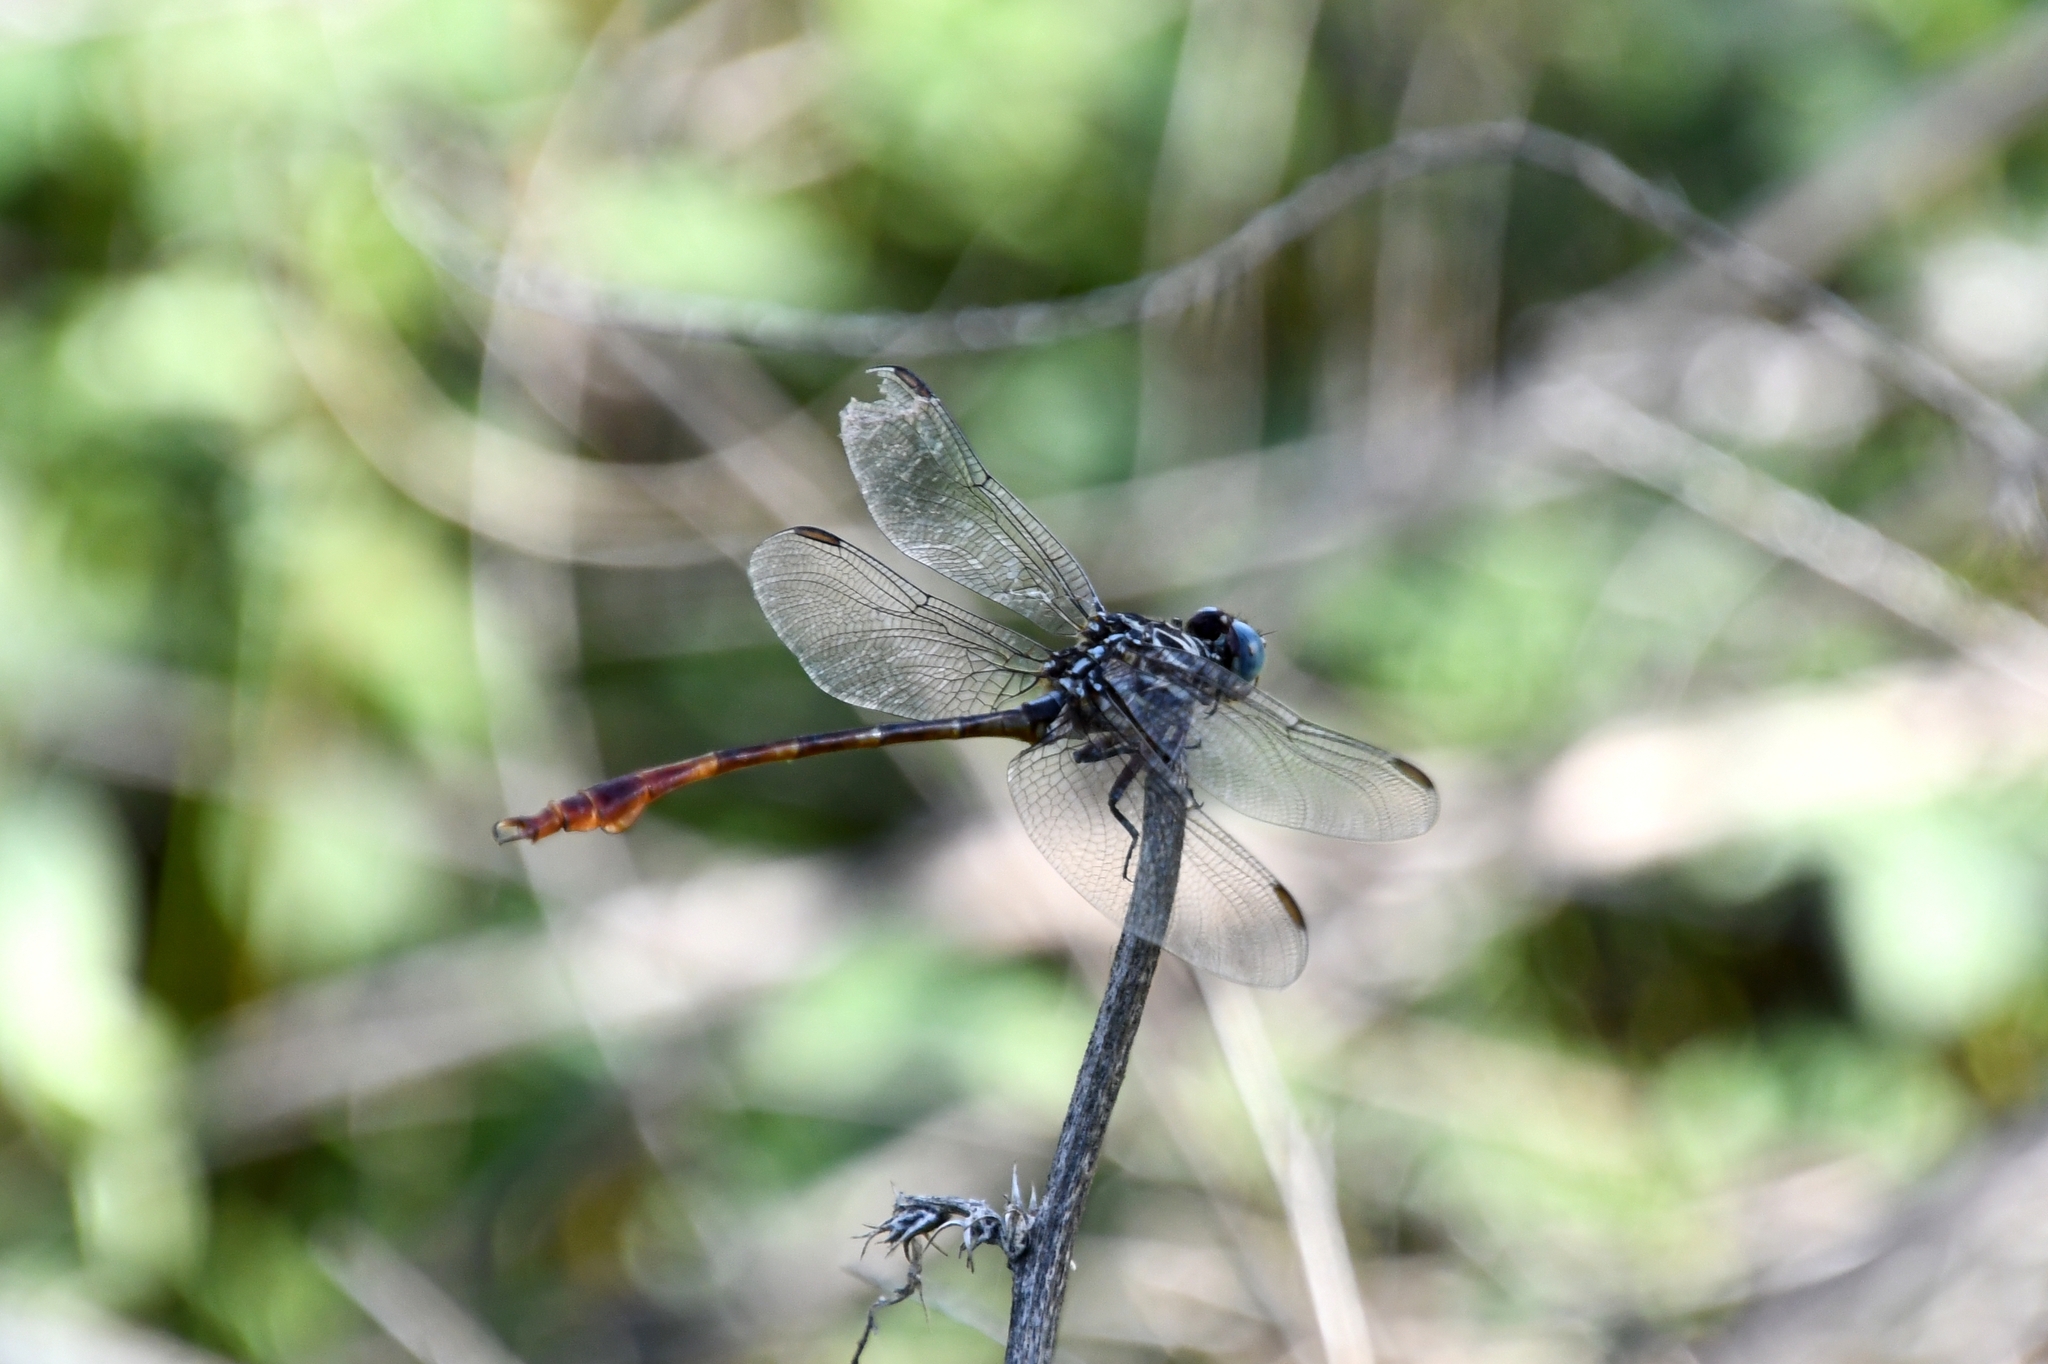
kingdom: Animalia
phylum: Arthropoda
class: Insecta
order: Odonata
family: Gomphidae
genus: Aphylla
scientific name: Aphylla protracta
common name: Narrow-striped forceptail
